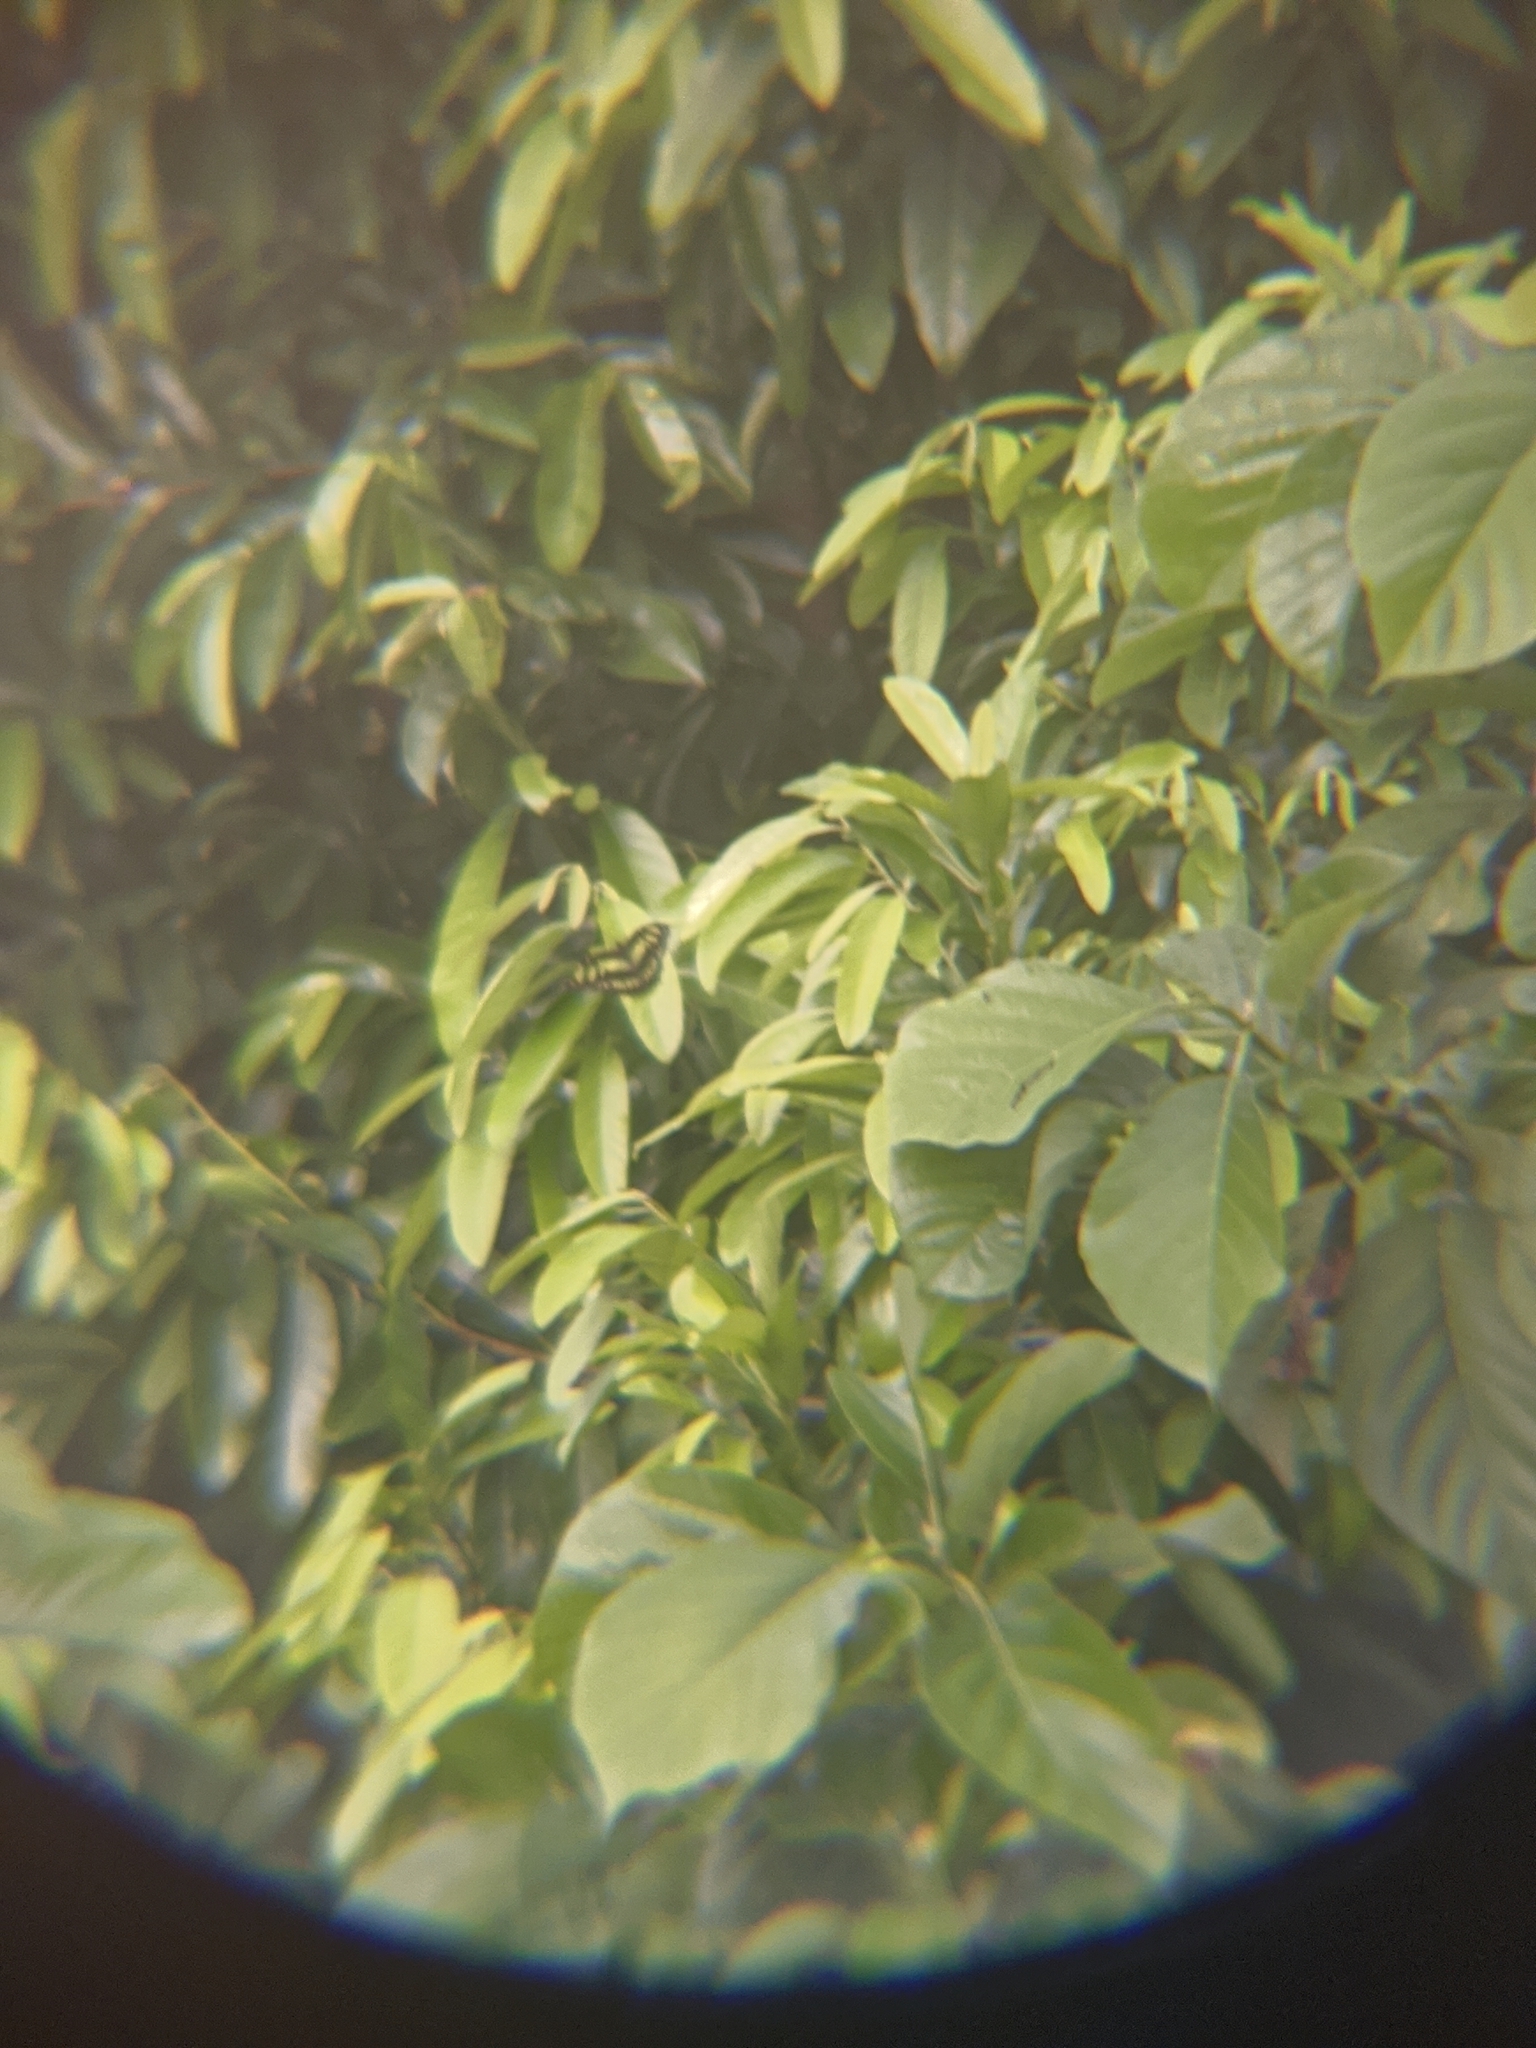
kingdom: Animalia
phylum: Arthropoda
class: Insecta
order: Lepidoptera
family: Nymphalidae
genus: Siproeta
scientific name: Siproeta stelenes
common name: Malachite
